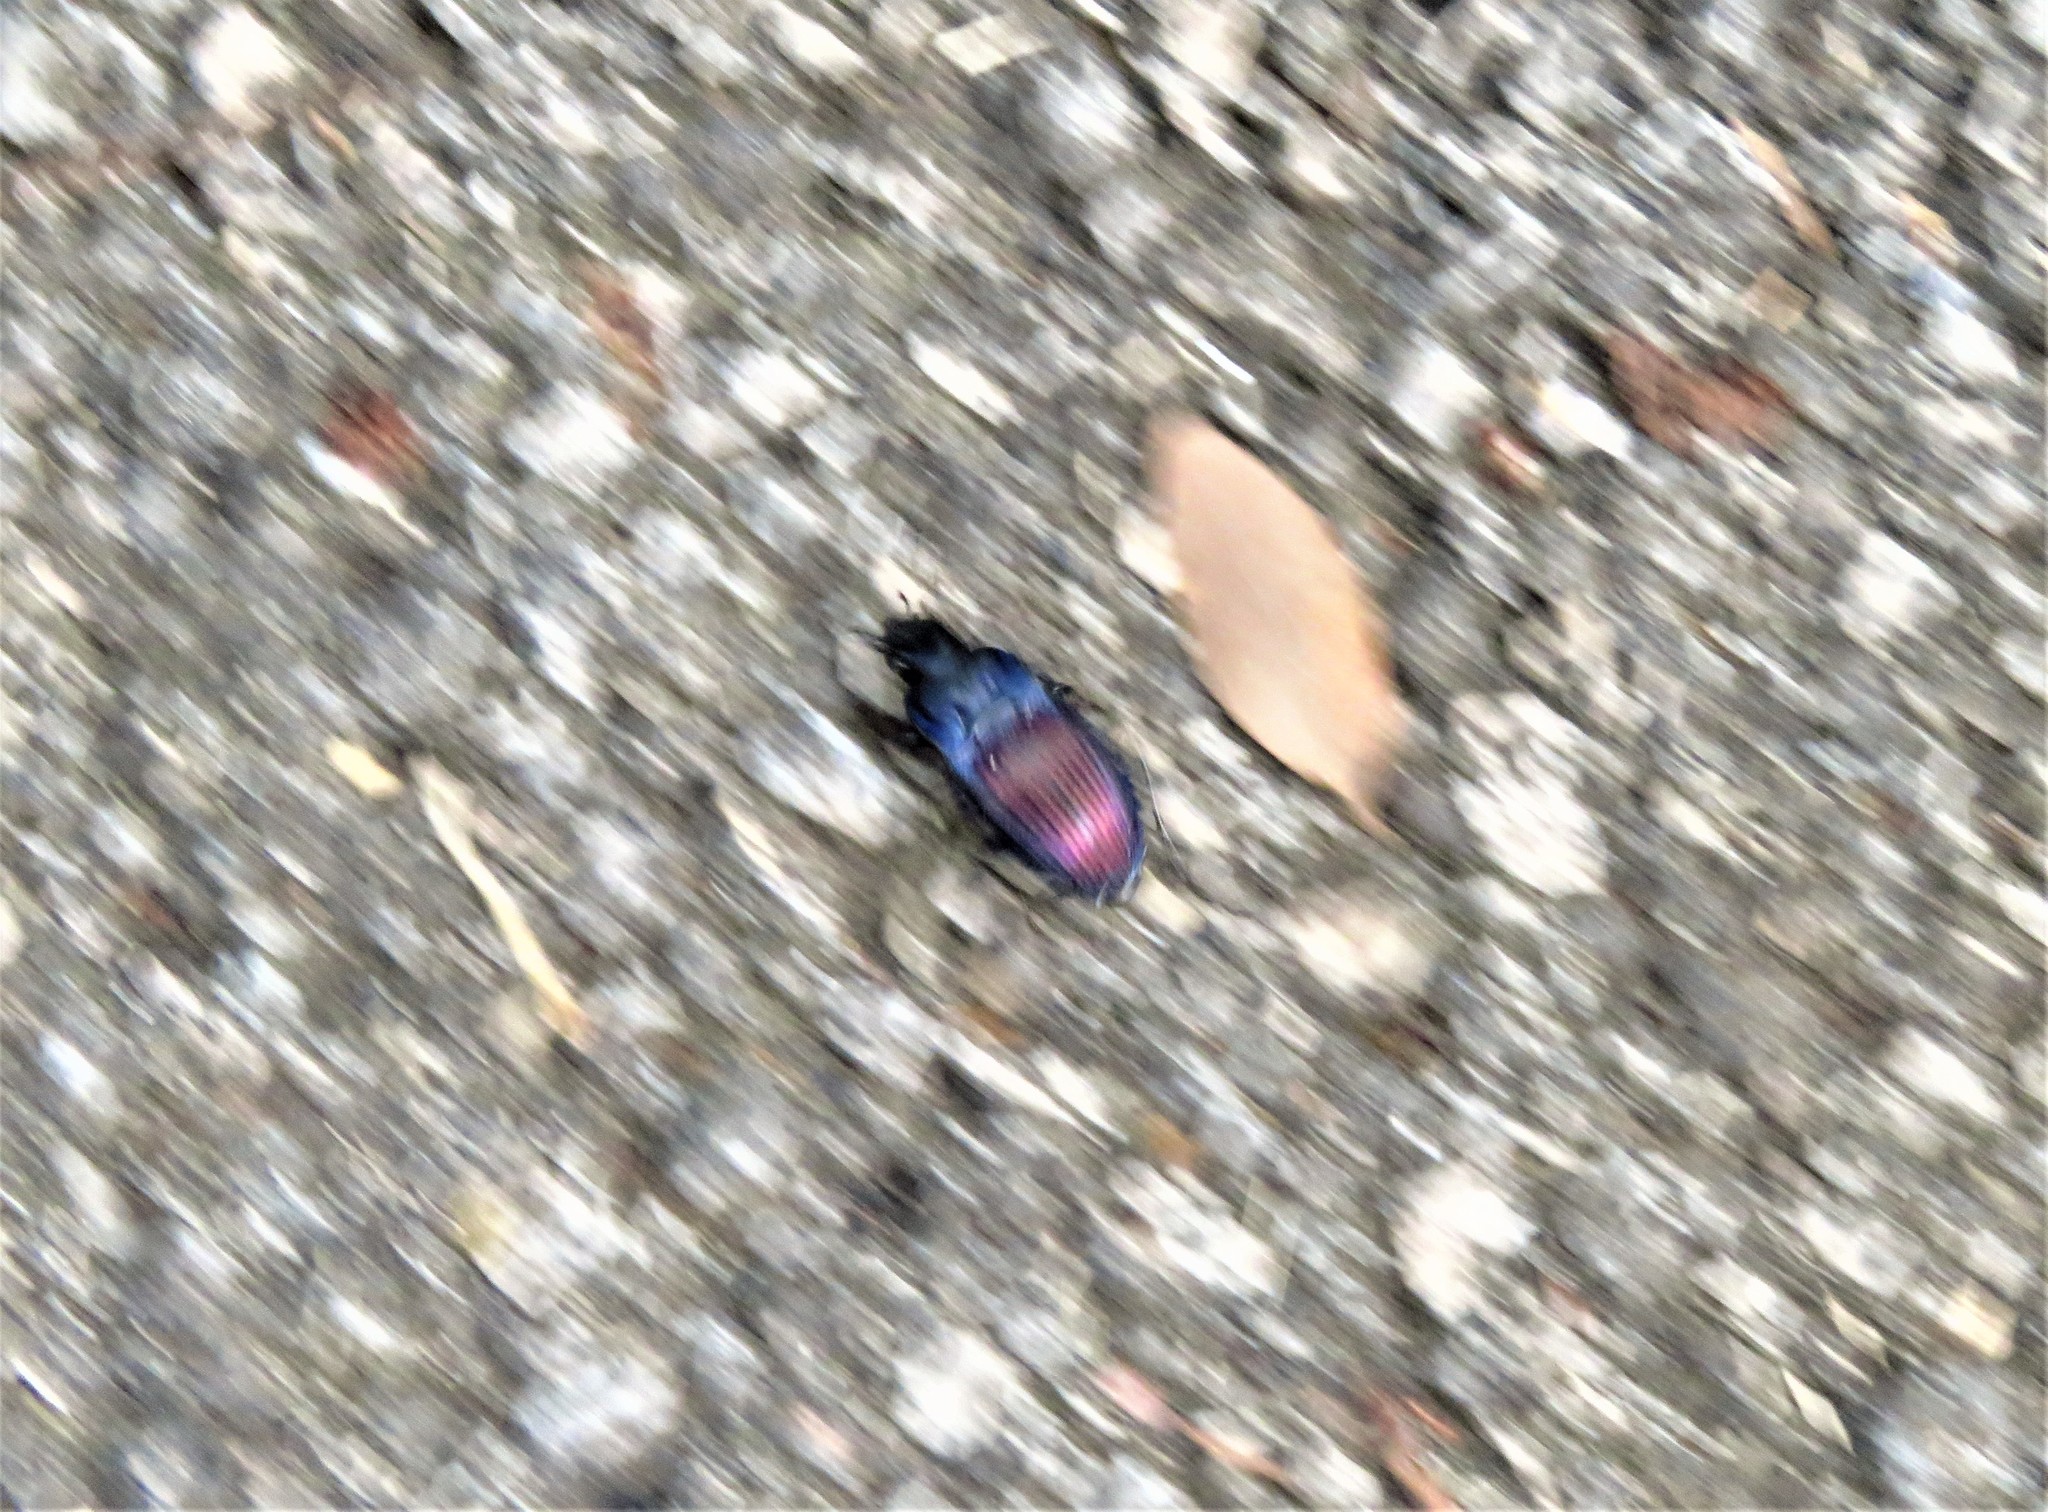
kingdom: Animalia
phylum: Arthropoda
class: Insecta
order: Coleoptera
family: Carabidae
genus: Dicaelus
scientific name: Dicaelus purpuratus
